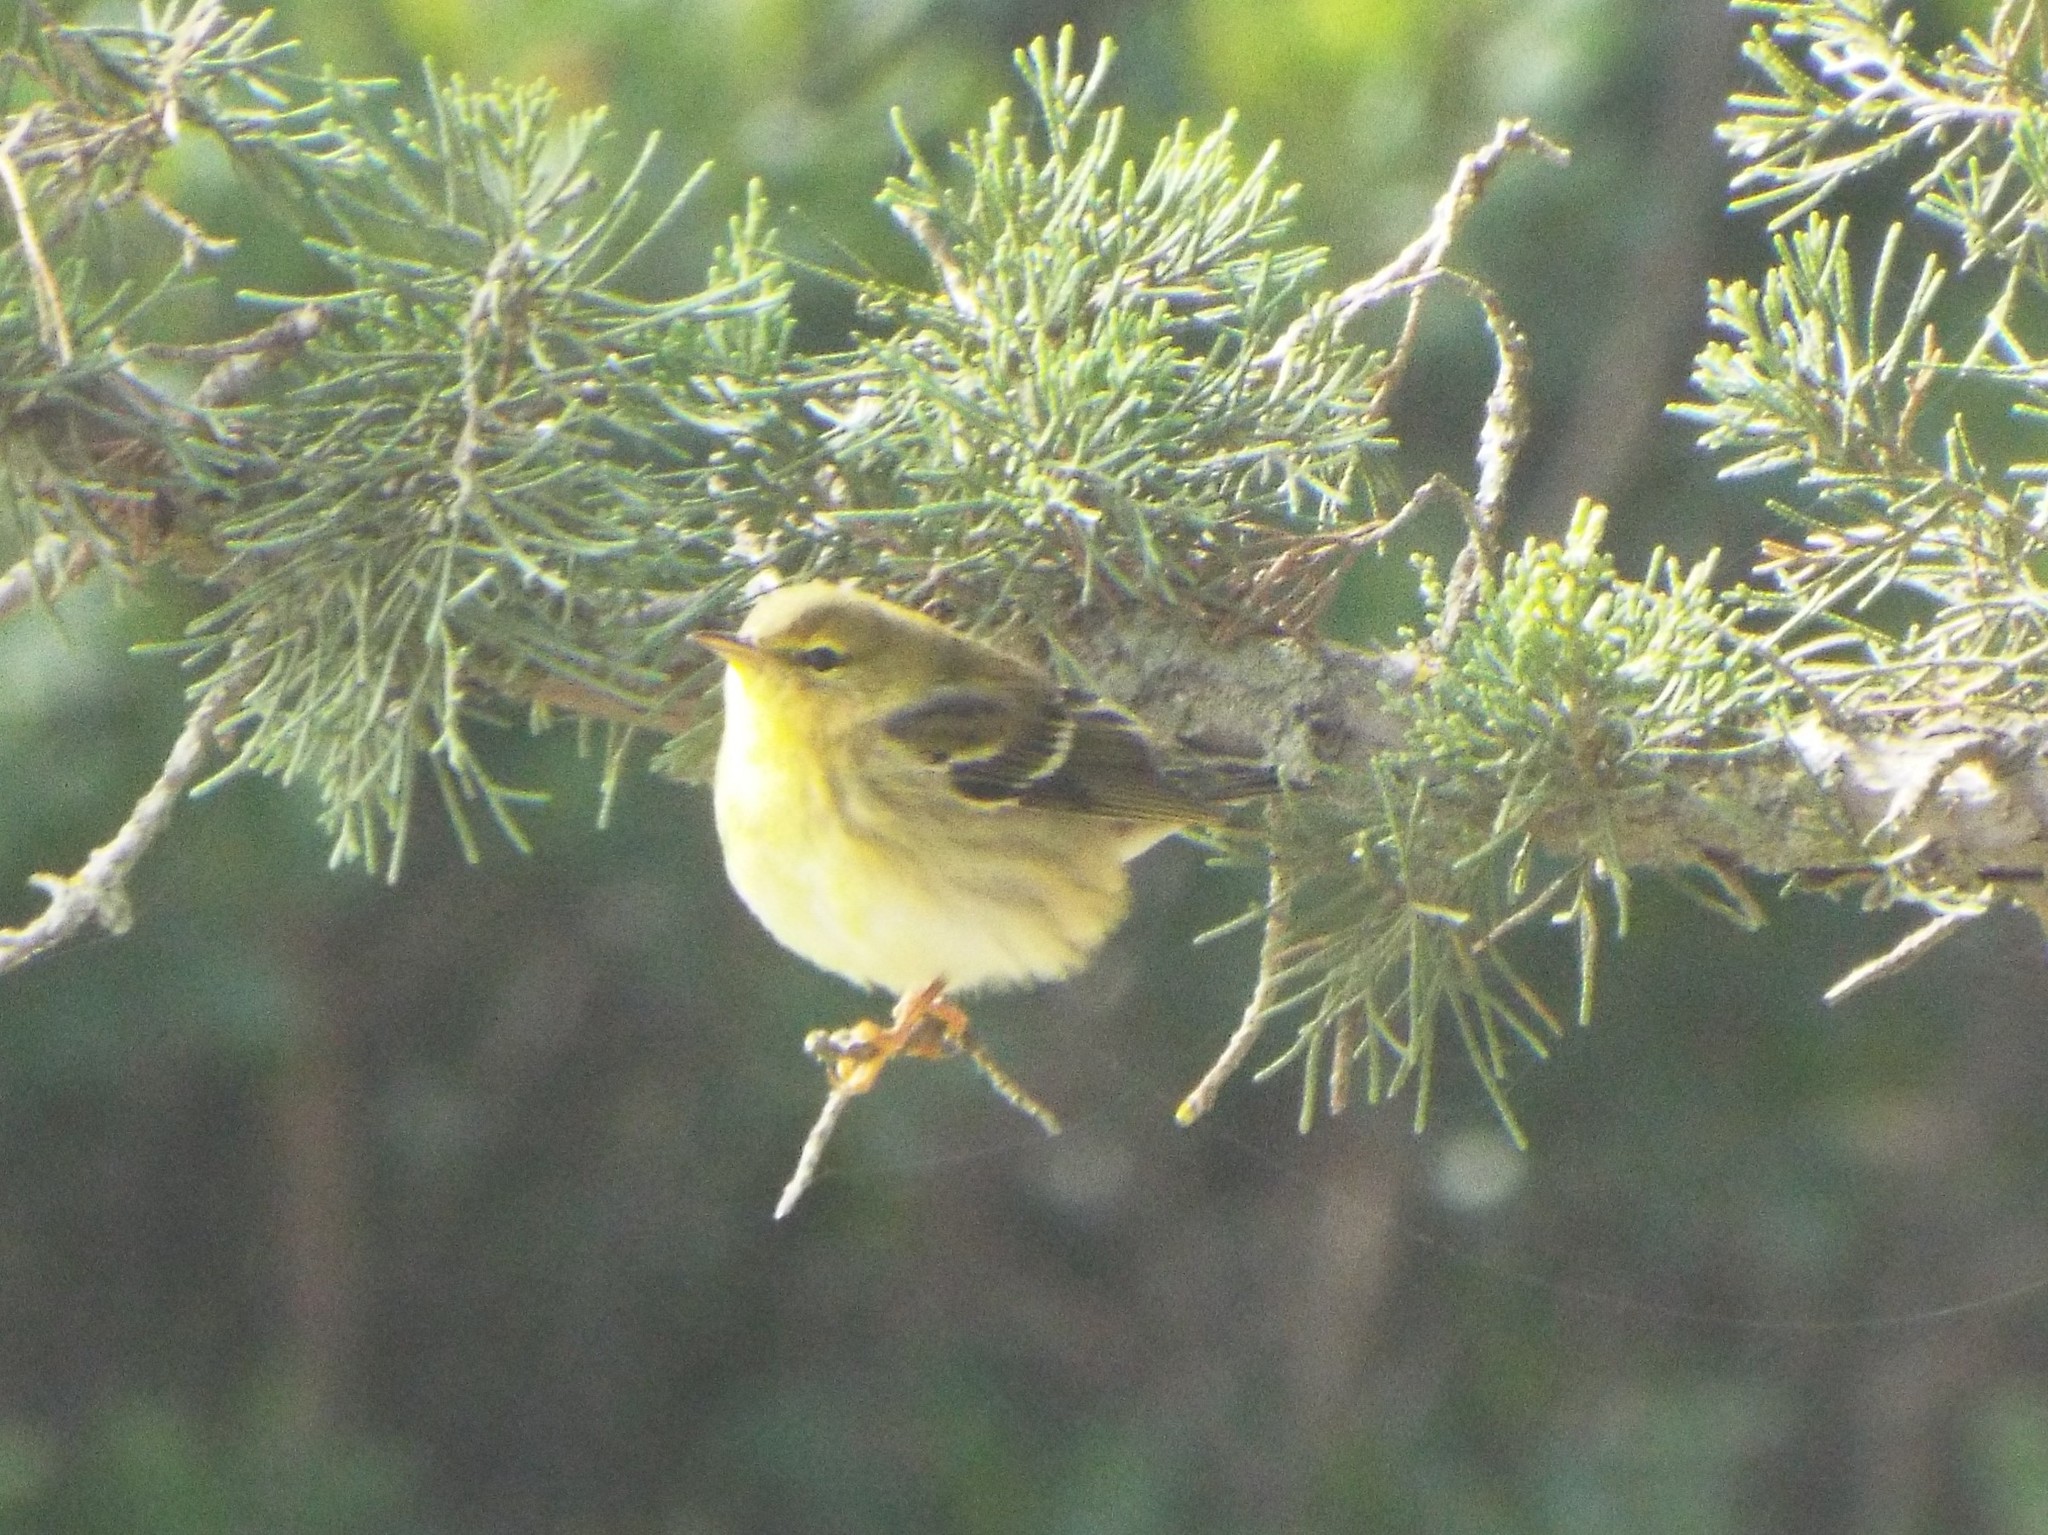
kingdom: Animalia
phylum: Chordata
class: Aves
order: Passeriformes
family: Parulidae
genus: Setophaga
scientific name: Setophaga striata
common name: Blackpoll warbler
